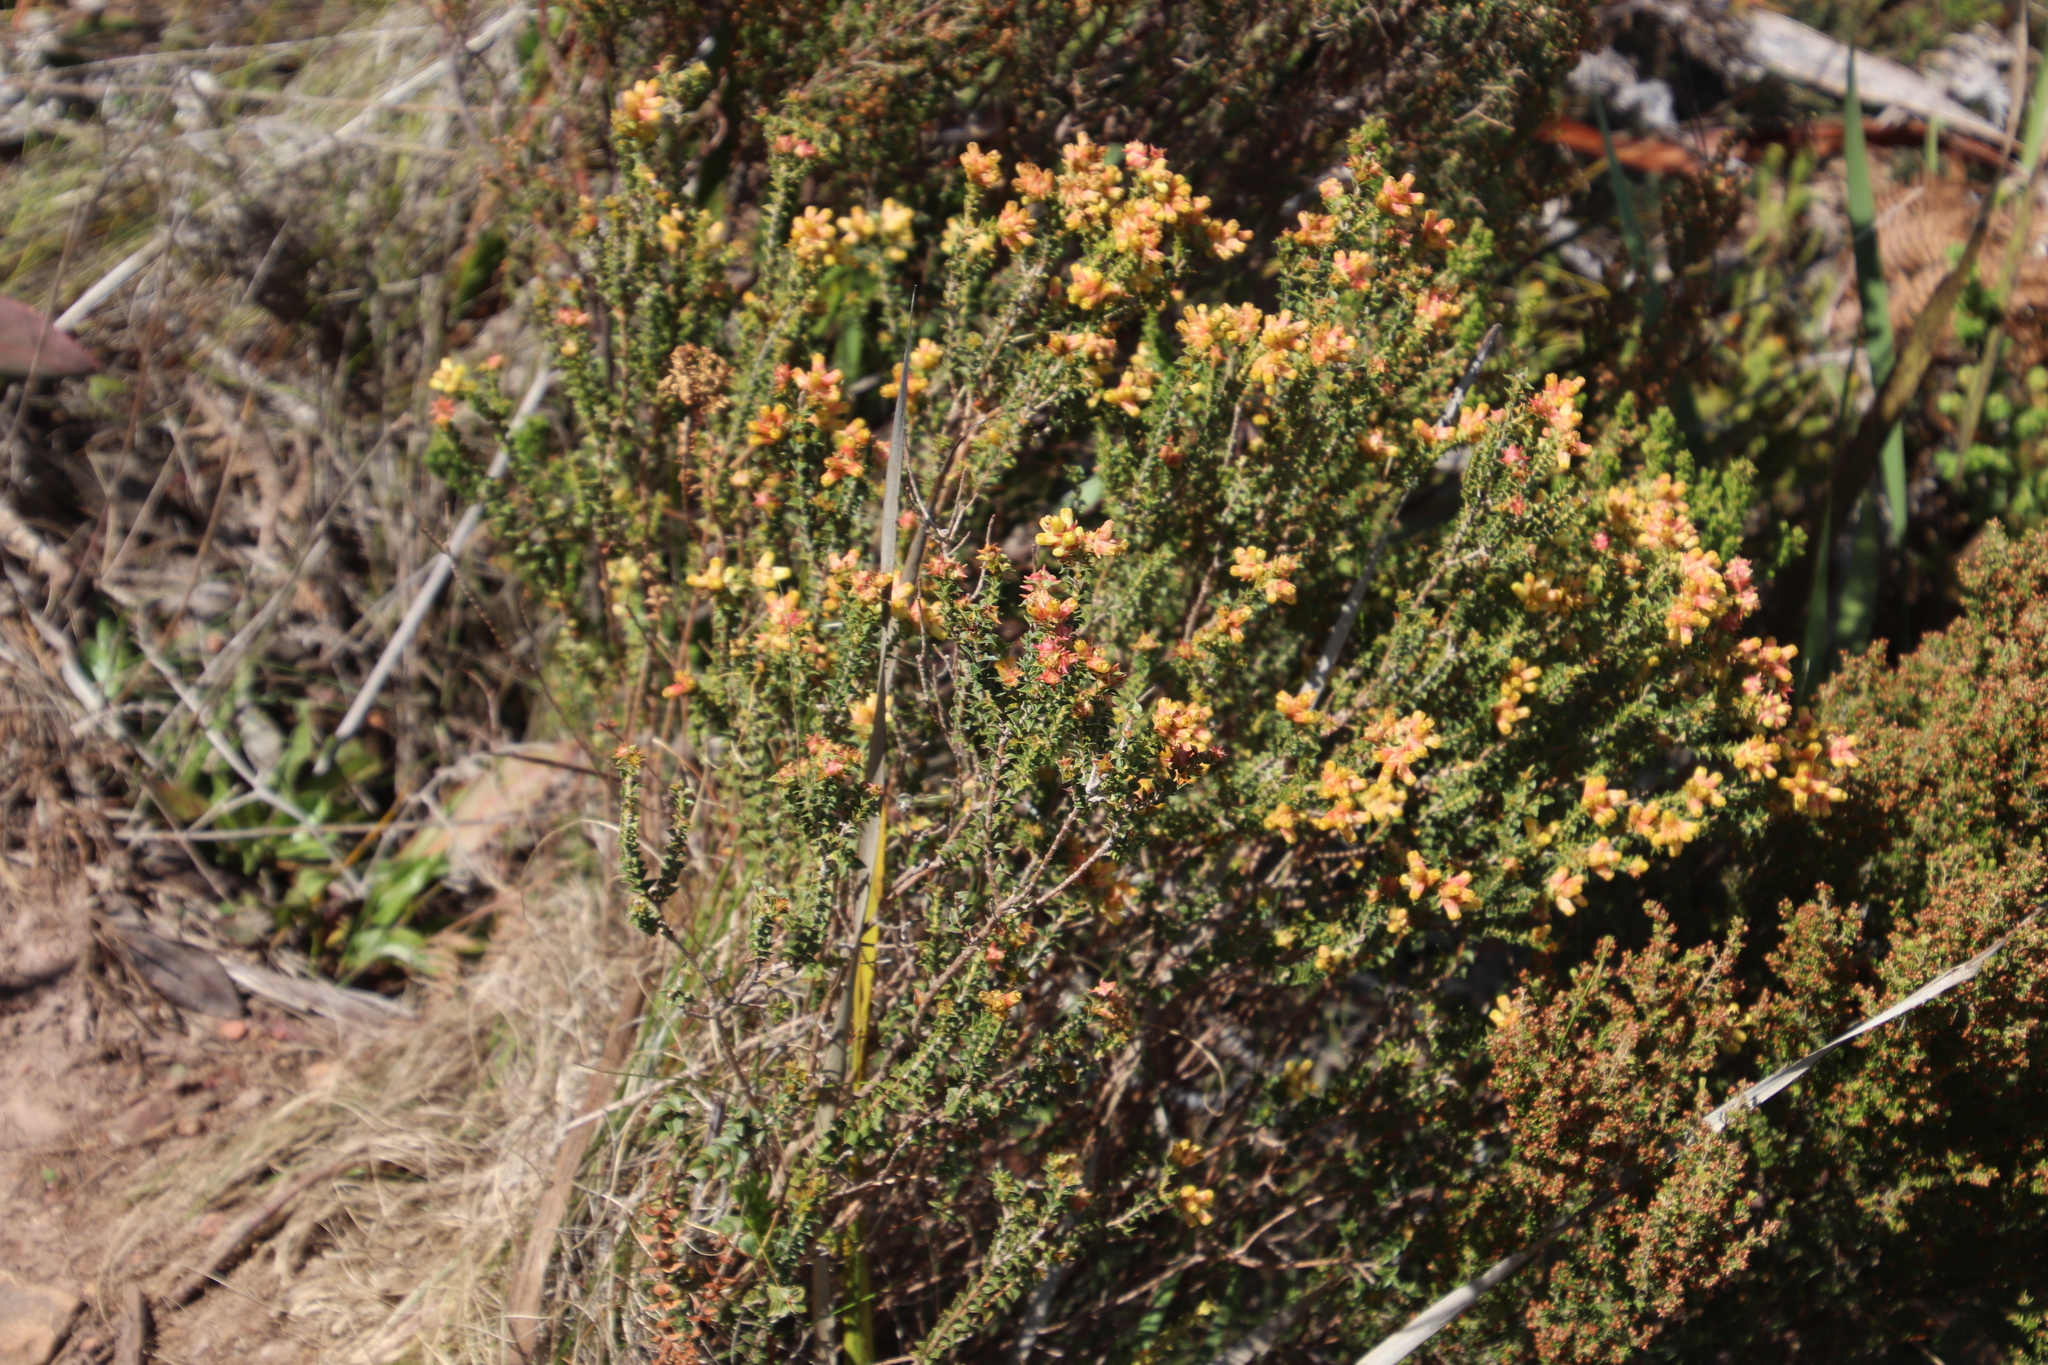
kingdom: Plantae
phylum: Tracheophyta
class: Magnoliopsida
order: Myrtales
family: Penaeaceae
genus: Penaea
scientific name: Penaea mucronata
